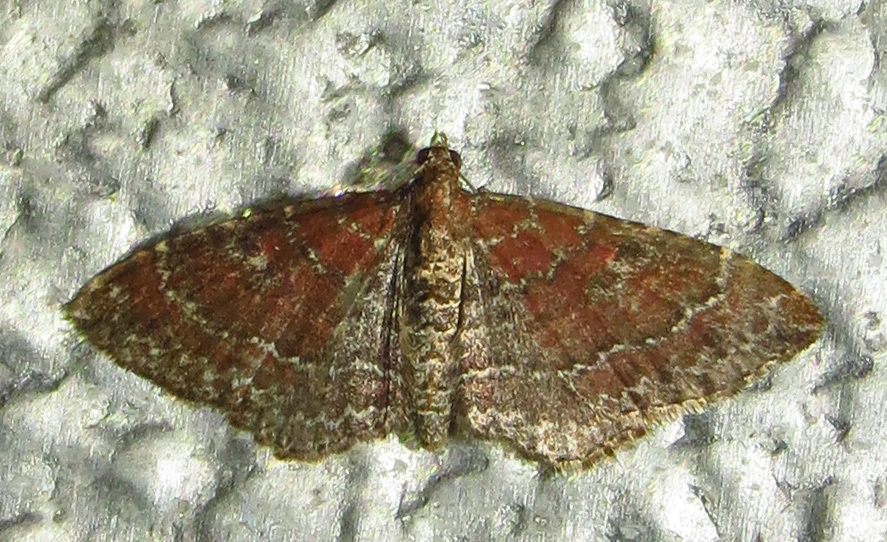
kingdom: Animalia
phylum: Arthropoda
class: Insecta
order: Lepidoptera
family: Geometridae
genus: Orthonama
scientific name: Orthonama obstipata
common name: The gem
